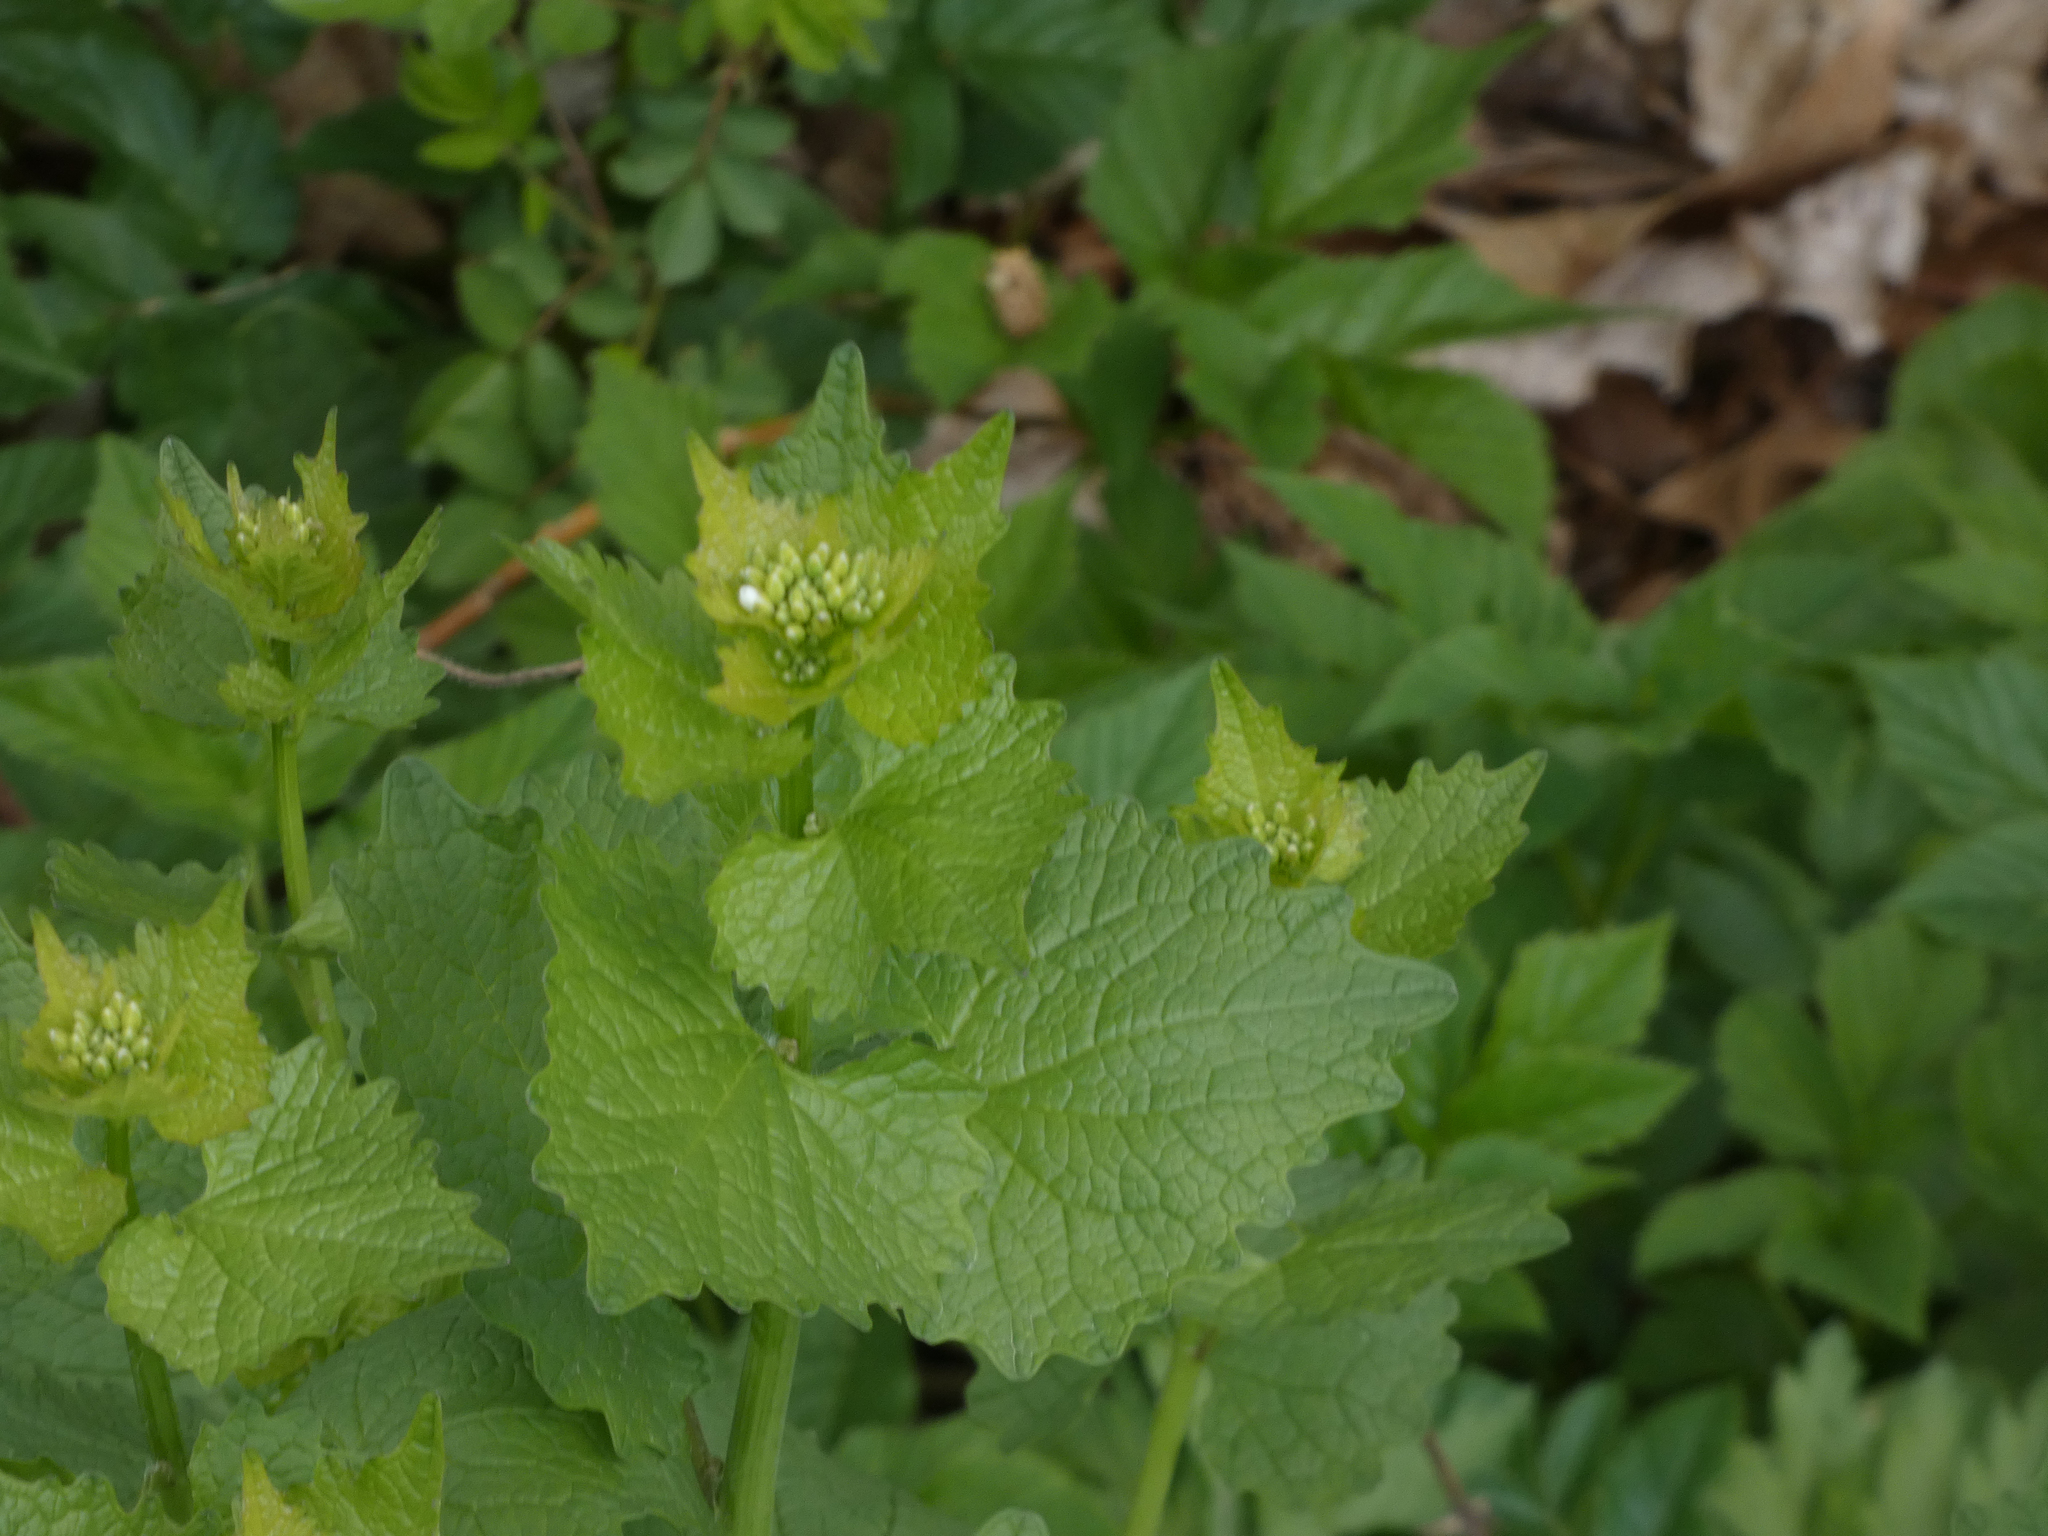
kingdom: Plantae
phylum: Tracheophyta
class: Magnoliopsida
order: Brassicales
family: Brassicaceae
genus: Alliaria
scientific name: Alliaria petiolata
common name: Garlic mustard
